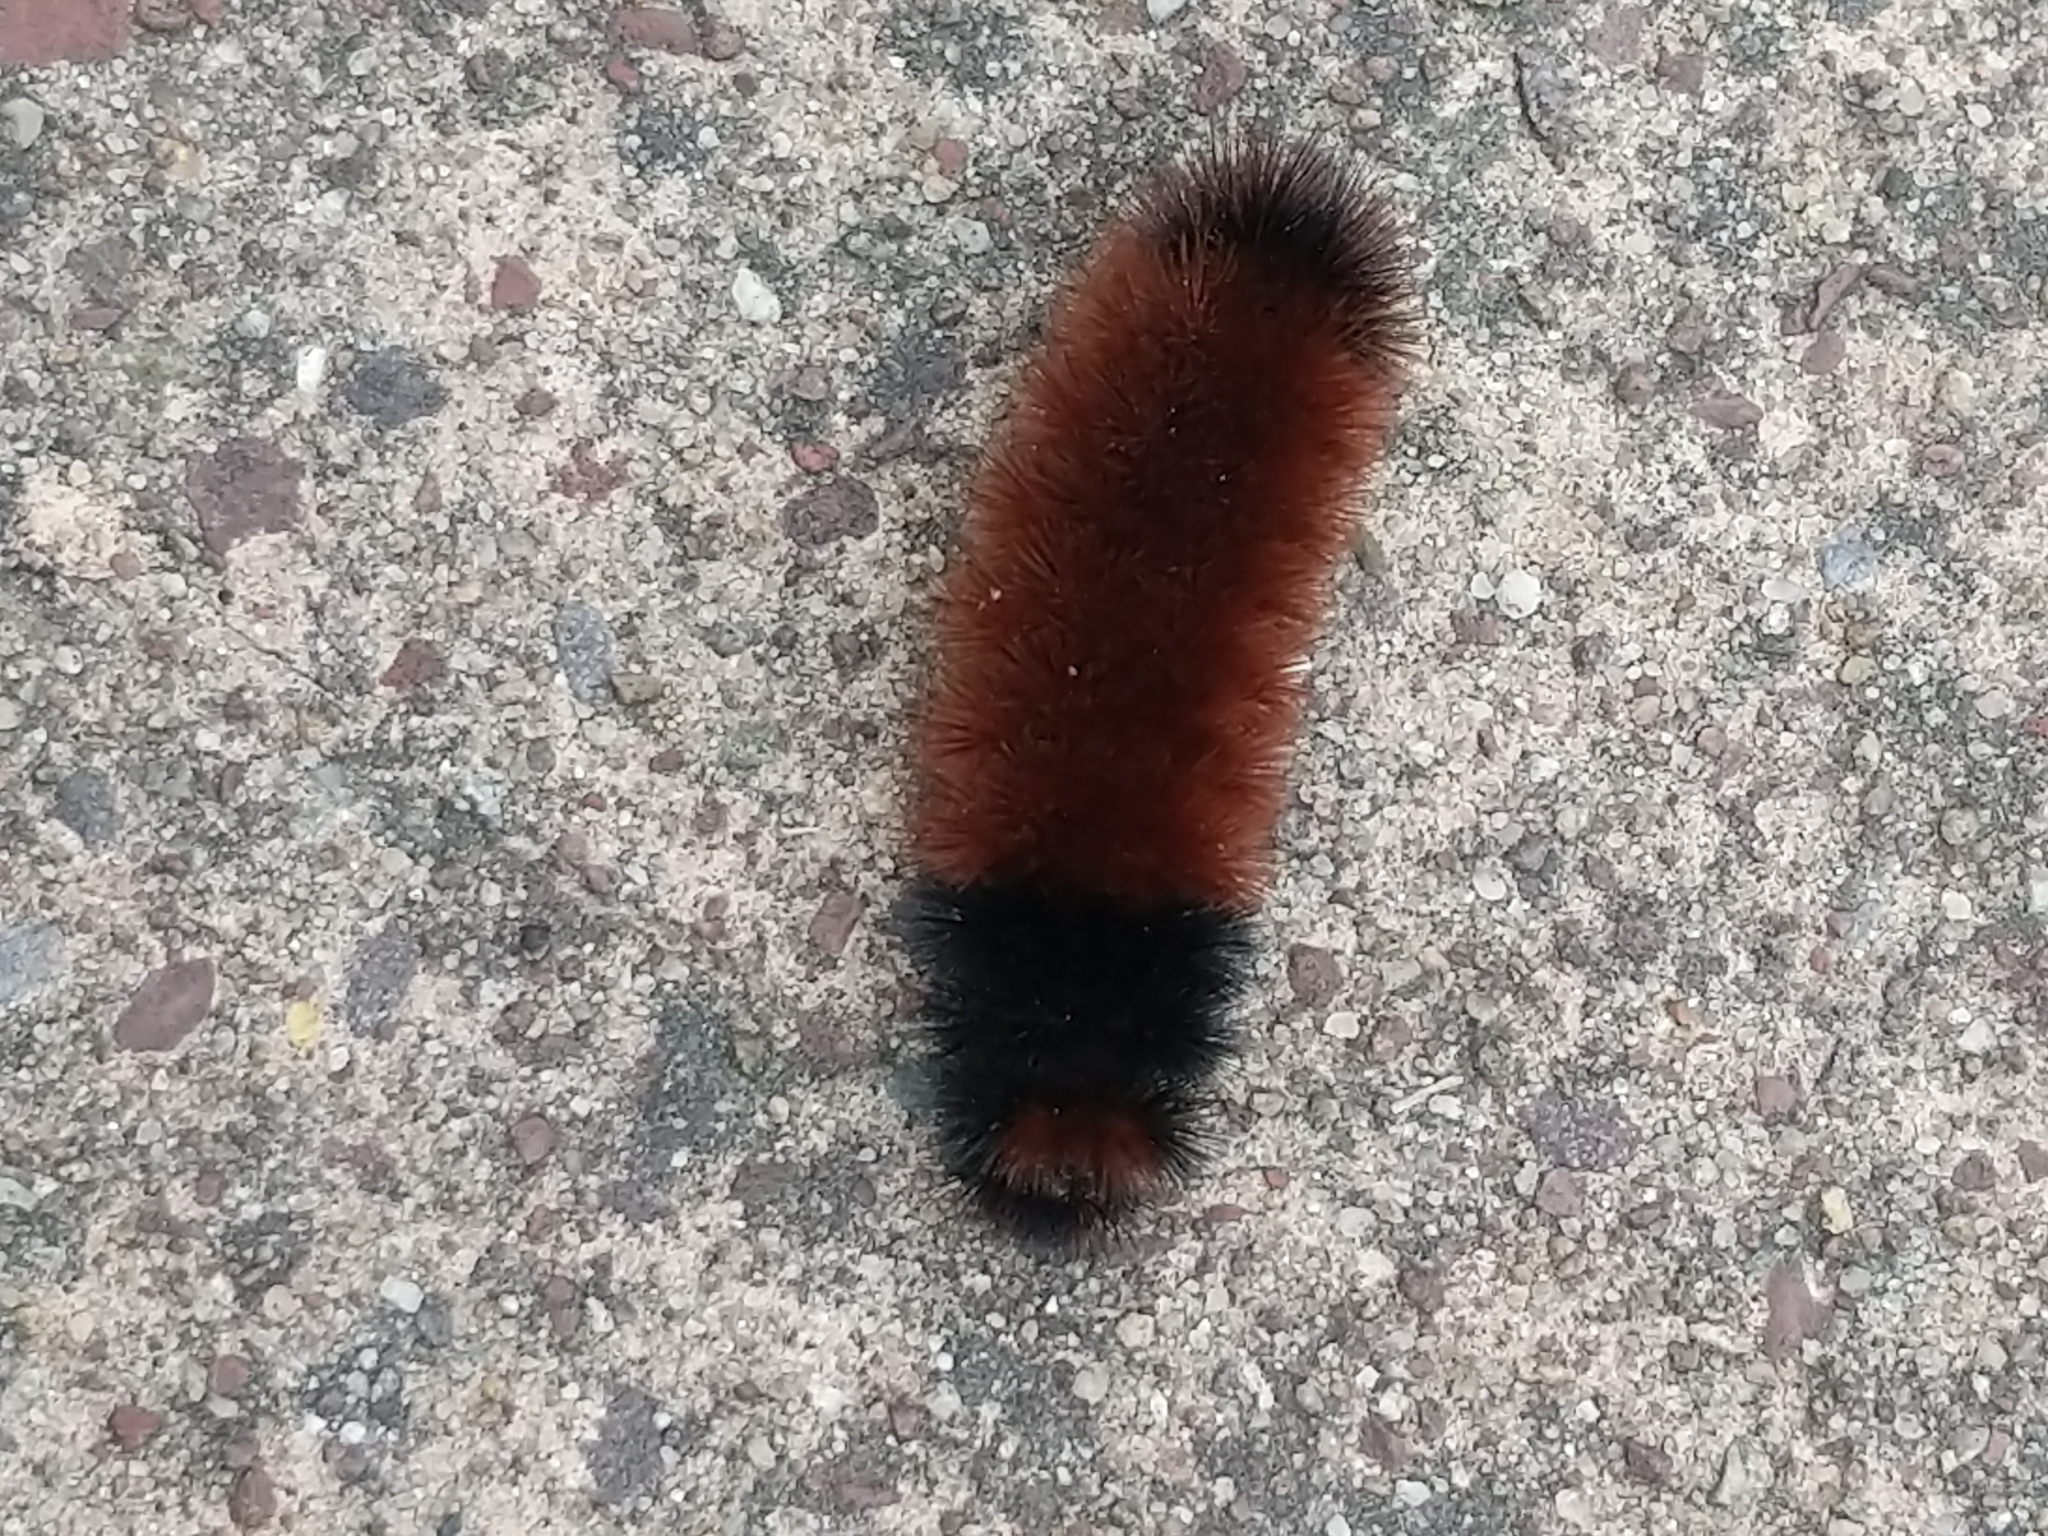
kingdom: Animalia
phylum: Arthropoda
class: Insecta
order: Lepidoptera
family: Erebidae
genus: Pyrrharctia
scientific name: Pyrrharctia isabella
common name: Isabella tiger moth
